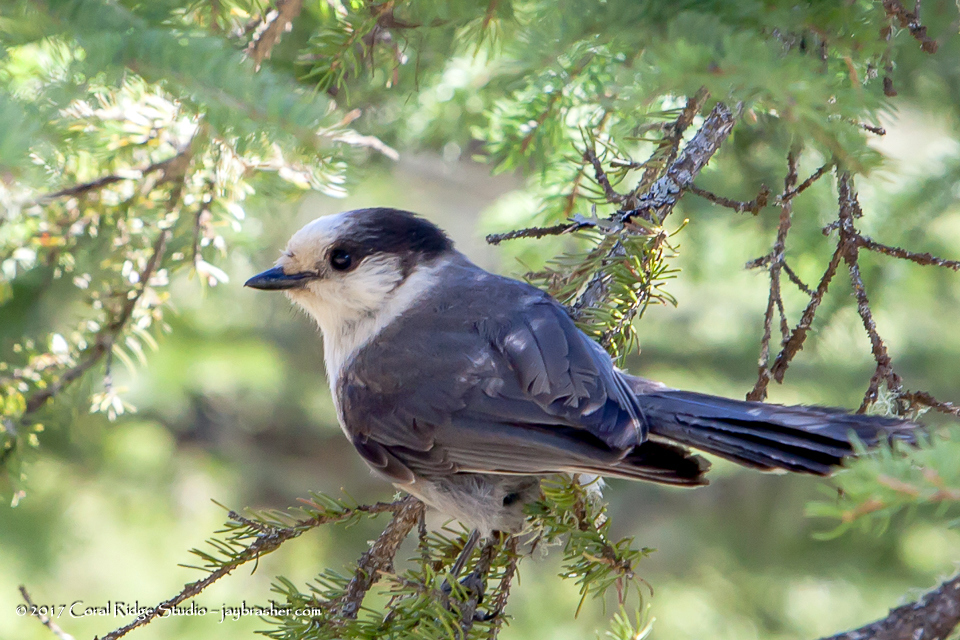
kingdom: Animalia
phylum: Chordata
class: Aves
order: Passeriformes
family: Corvidae
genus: Perisoreus
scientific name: Perisoreus canadensis
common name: Gray jay
